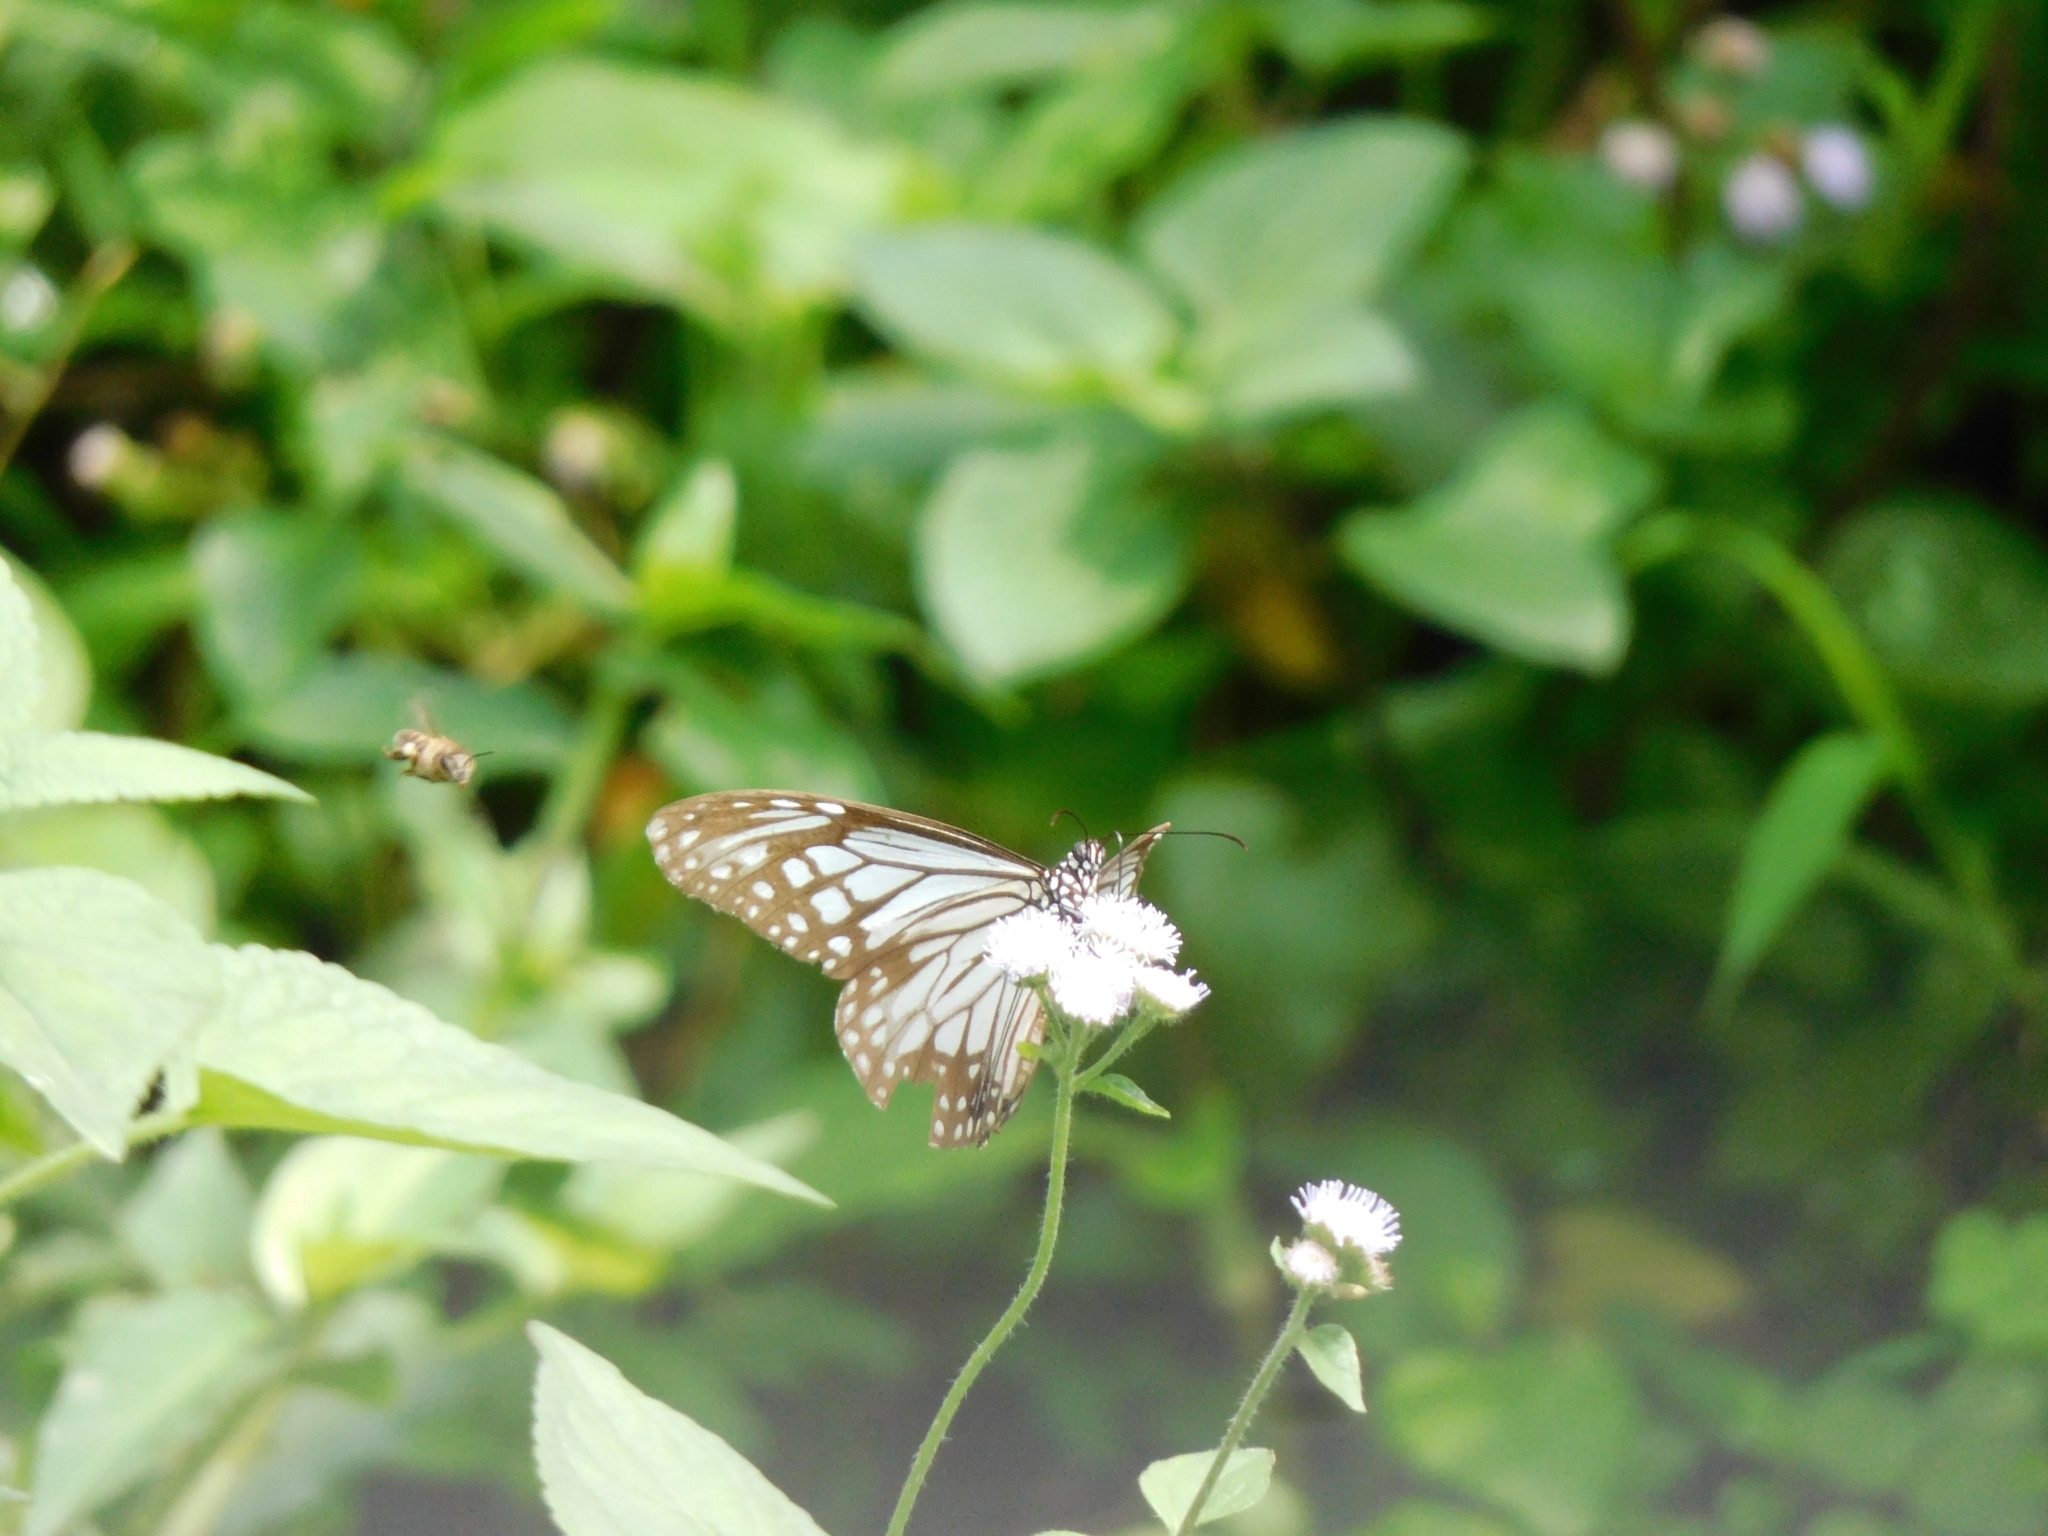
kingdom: Animalia
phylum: Arthropoda
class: Insecta
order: Lepidoptera
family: Nymphalidae
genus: Parantica
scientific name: Parantica aglea
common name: Glassy tiger
